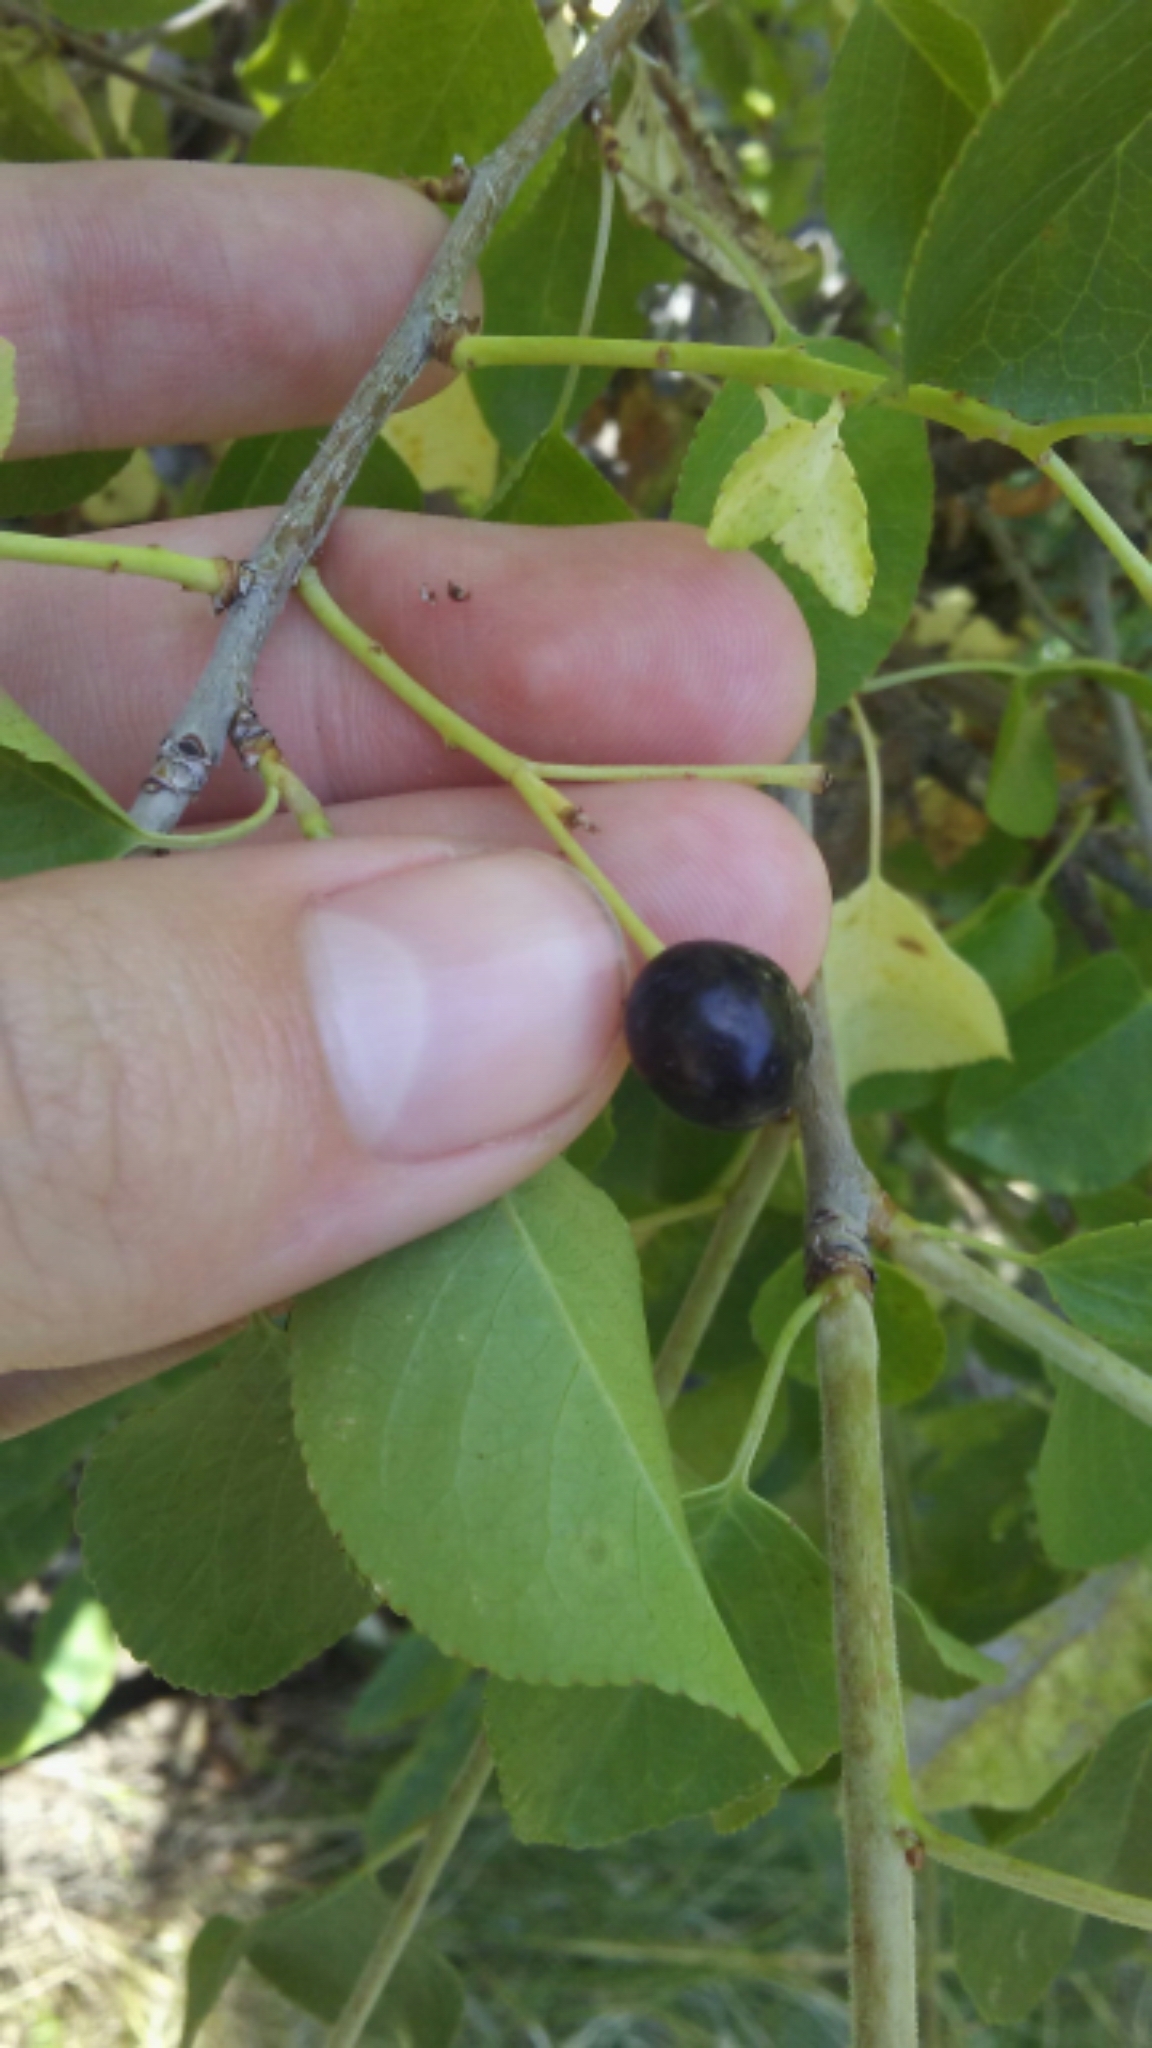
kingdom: Plantae
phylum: Tracheophyta
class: Magnoliopsida
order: Rosales
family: Rosaceae
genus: Prunus
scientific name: Prunus mahaleb
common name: Mahaleb cherry
